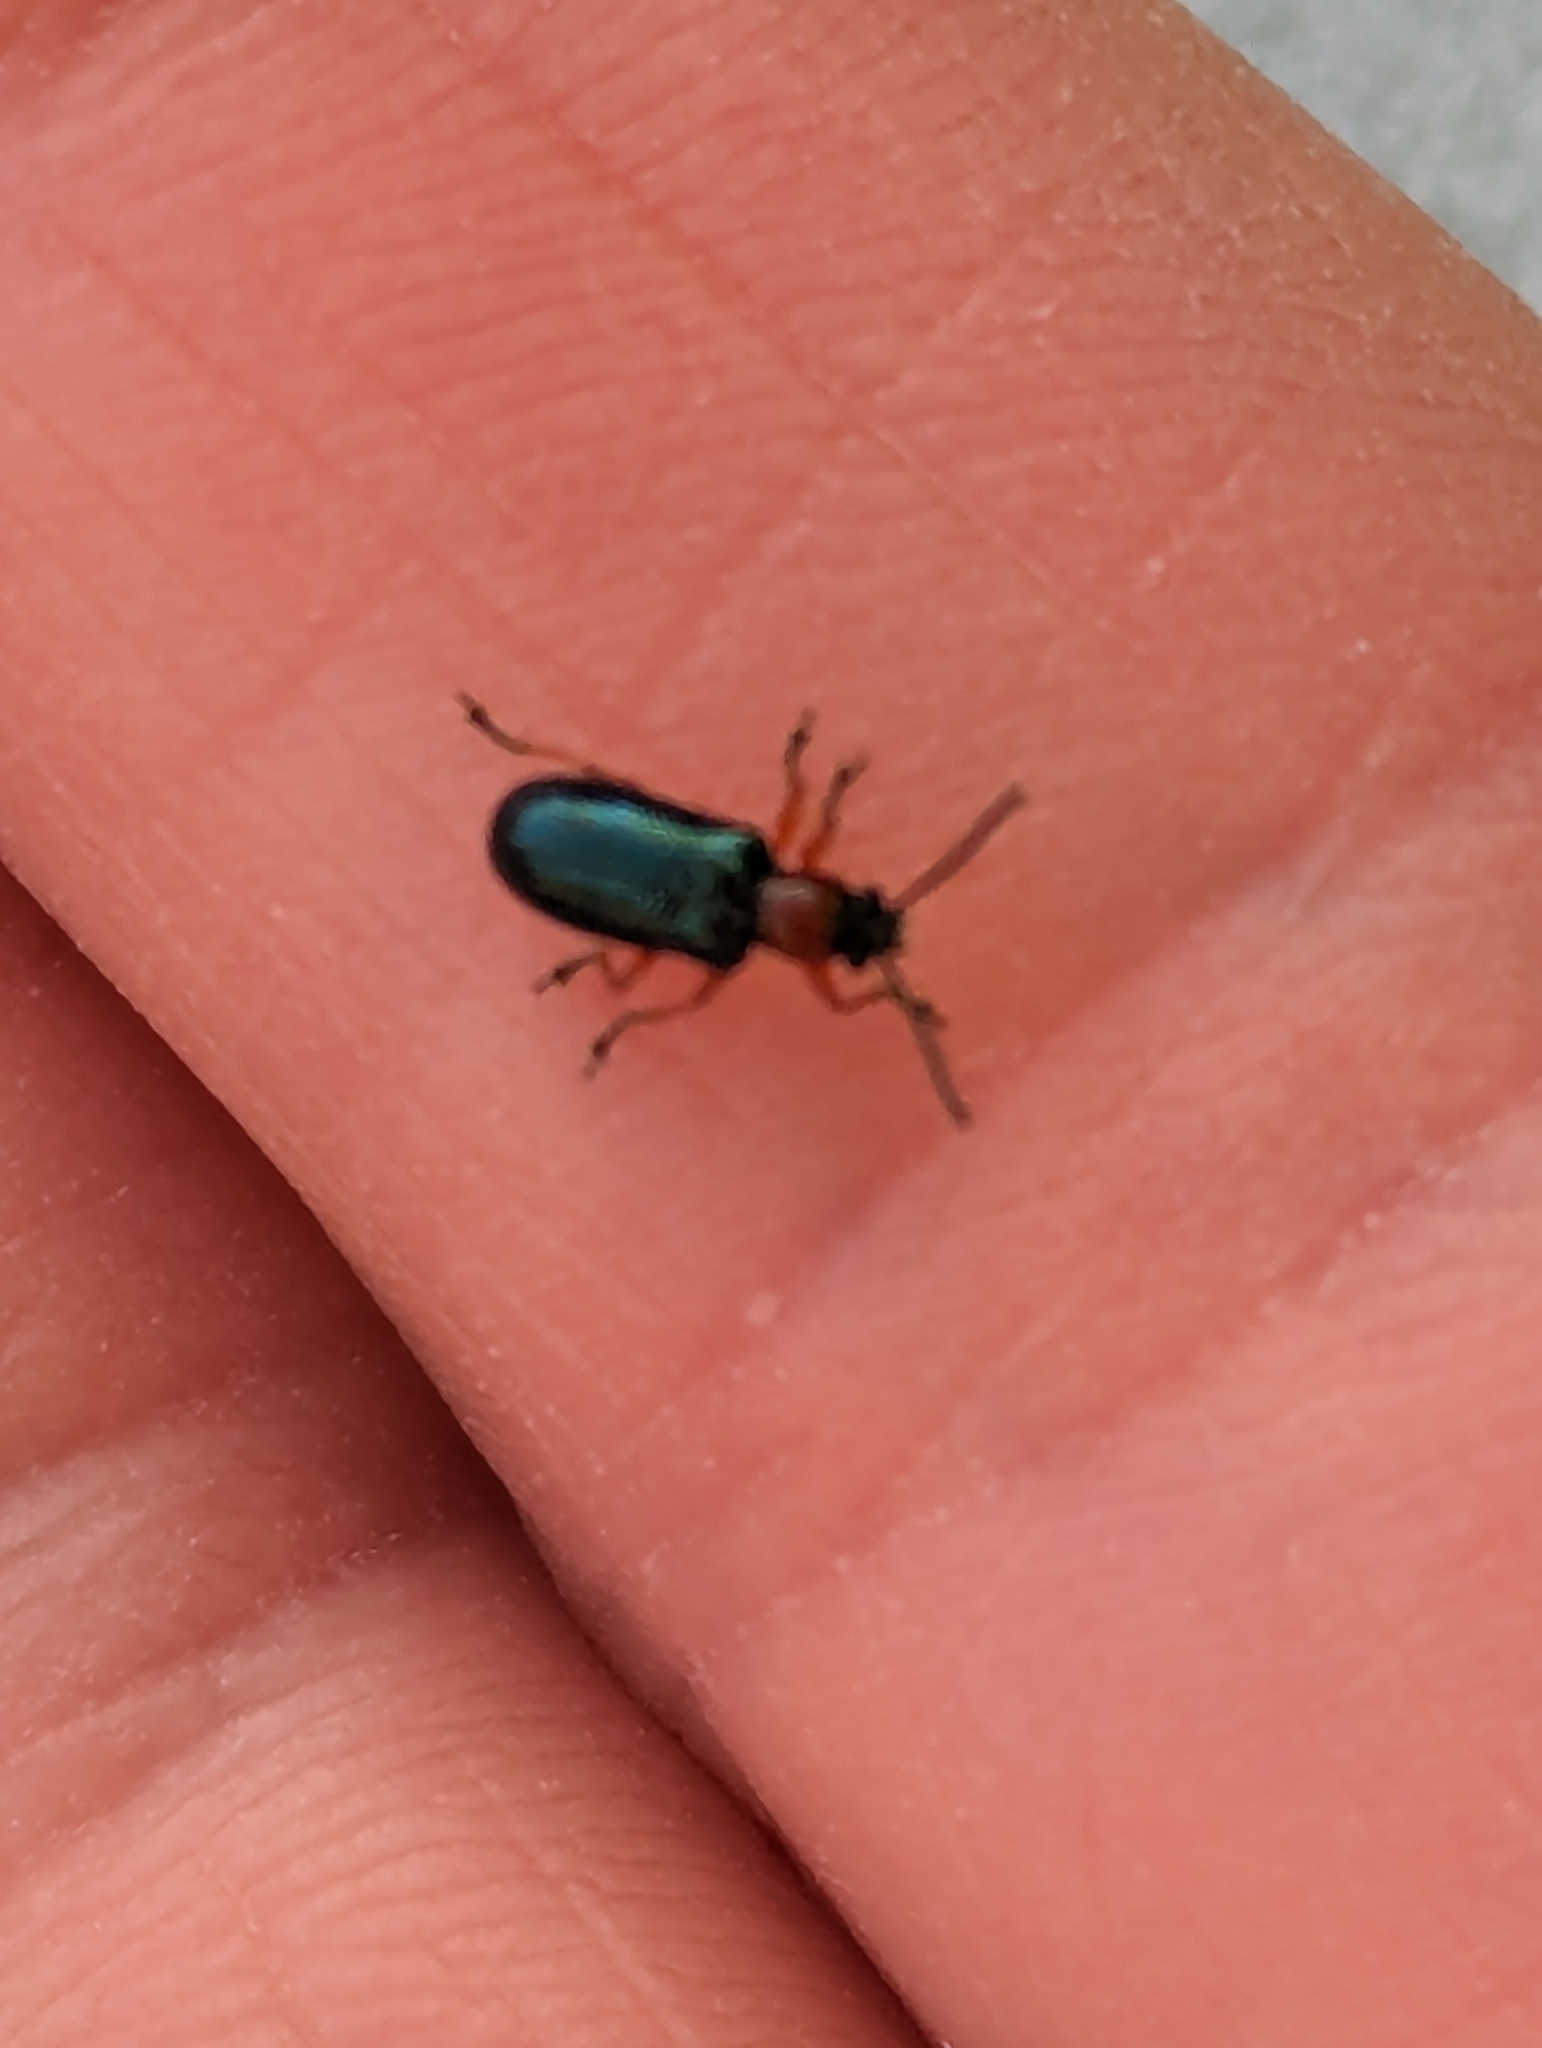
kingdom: Animalia
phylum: Arthropoda
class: Insecta
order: Coleoptera
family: Chrysomelidae
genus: Oulema
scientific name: Oulema
